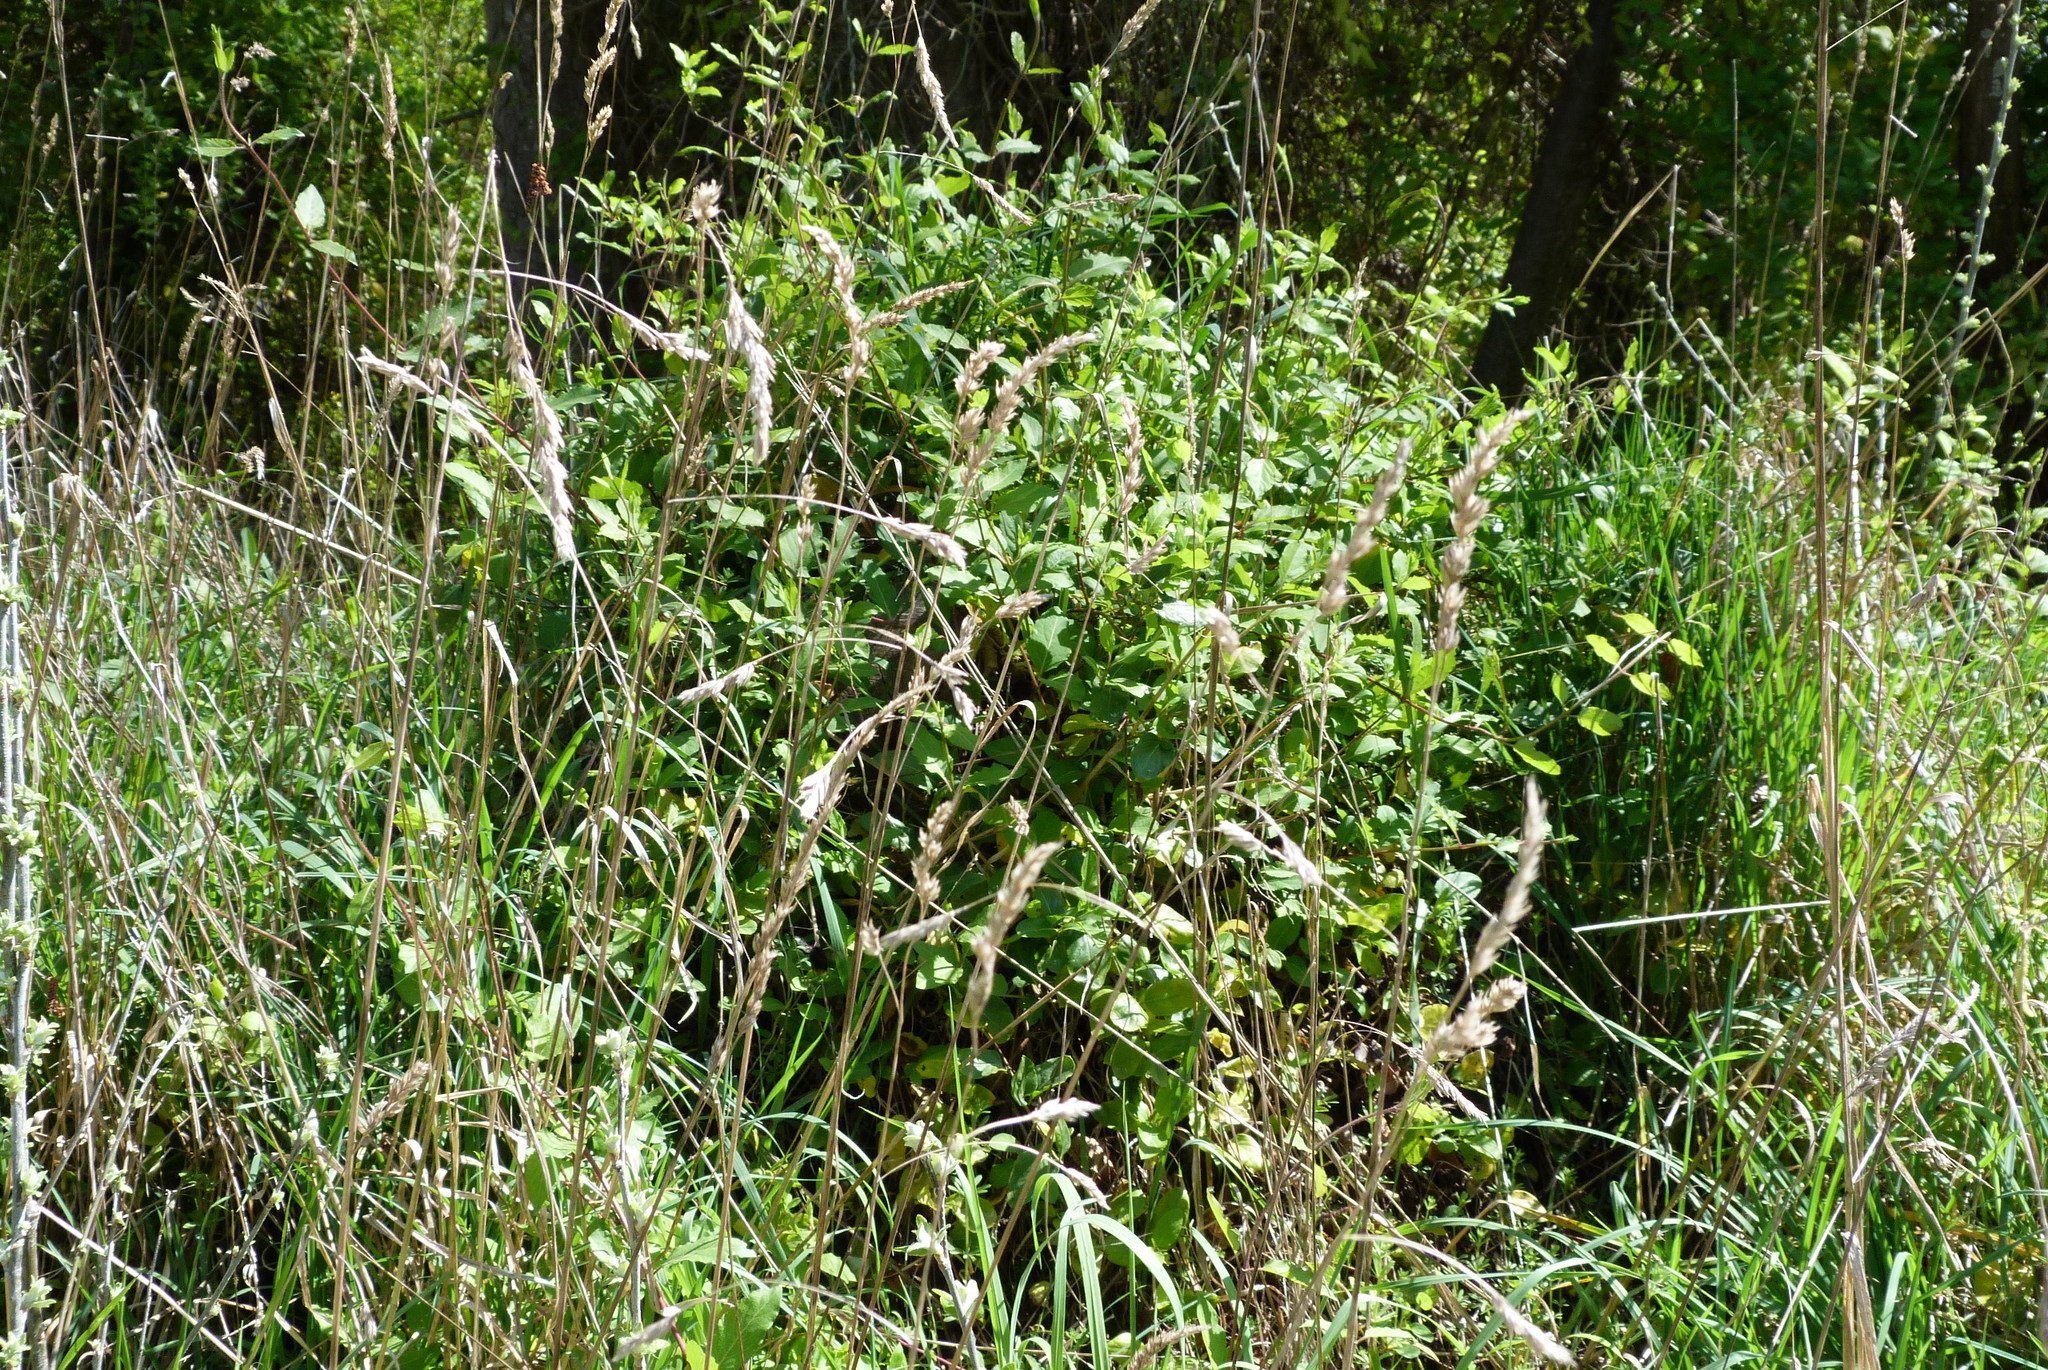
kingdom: Plantae
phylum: Tracheophyta
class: Magnoliopsida
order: Dipsacales
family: Caprifoliaceae
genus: Lonicera
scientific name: Lonicera japonica
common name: Japanese honeysuckle
